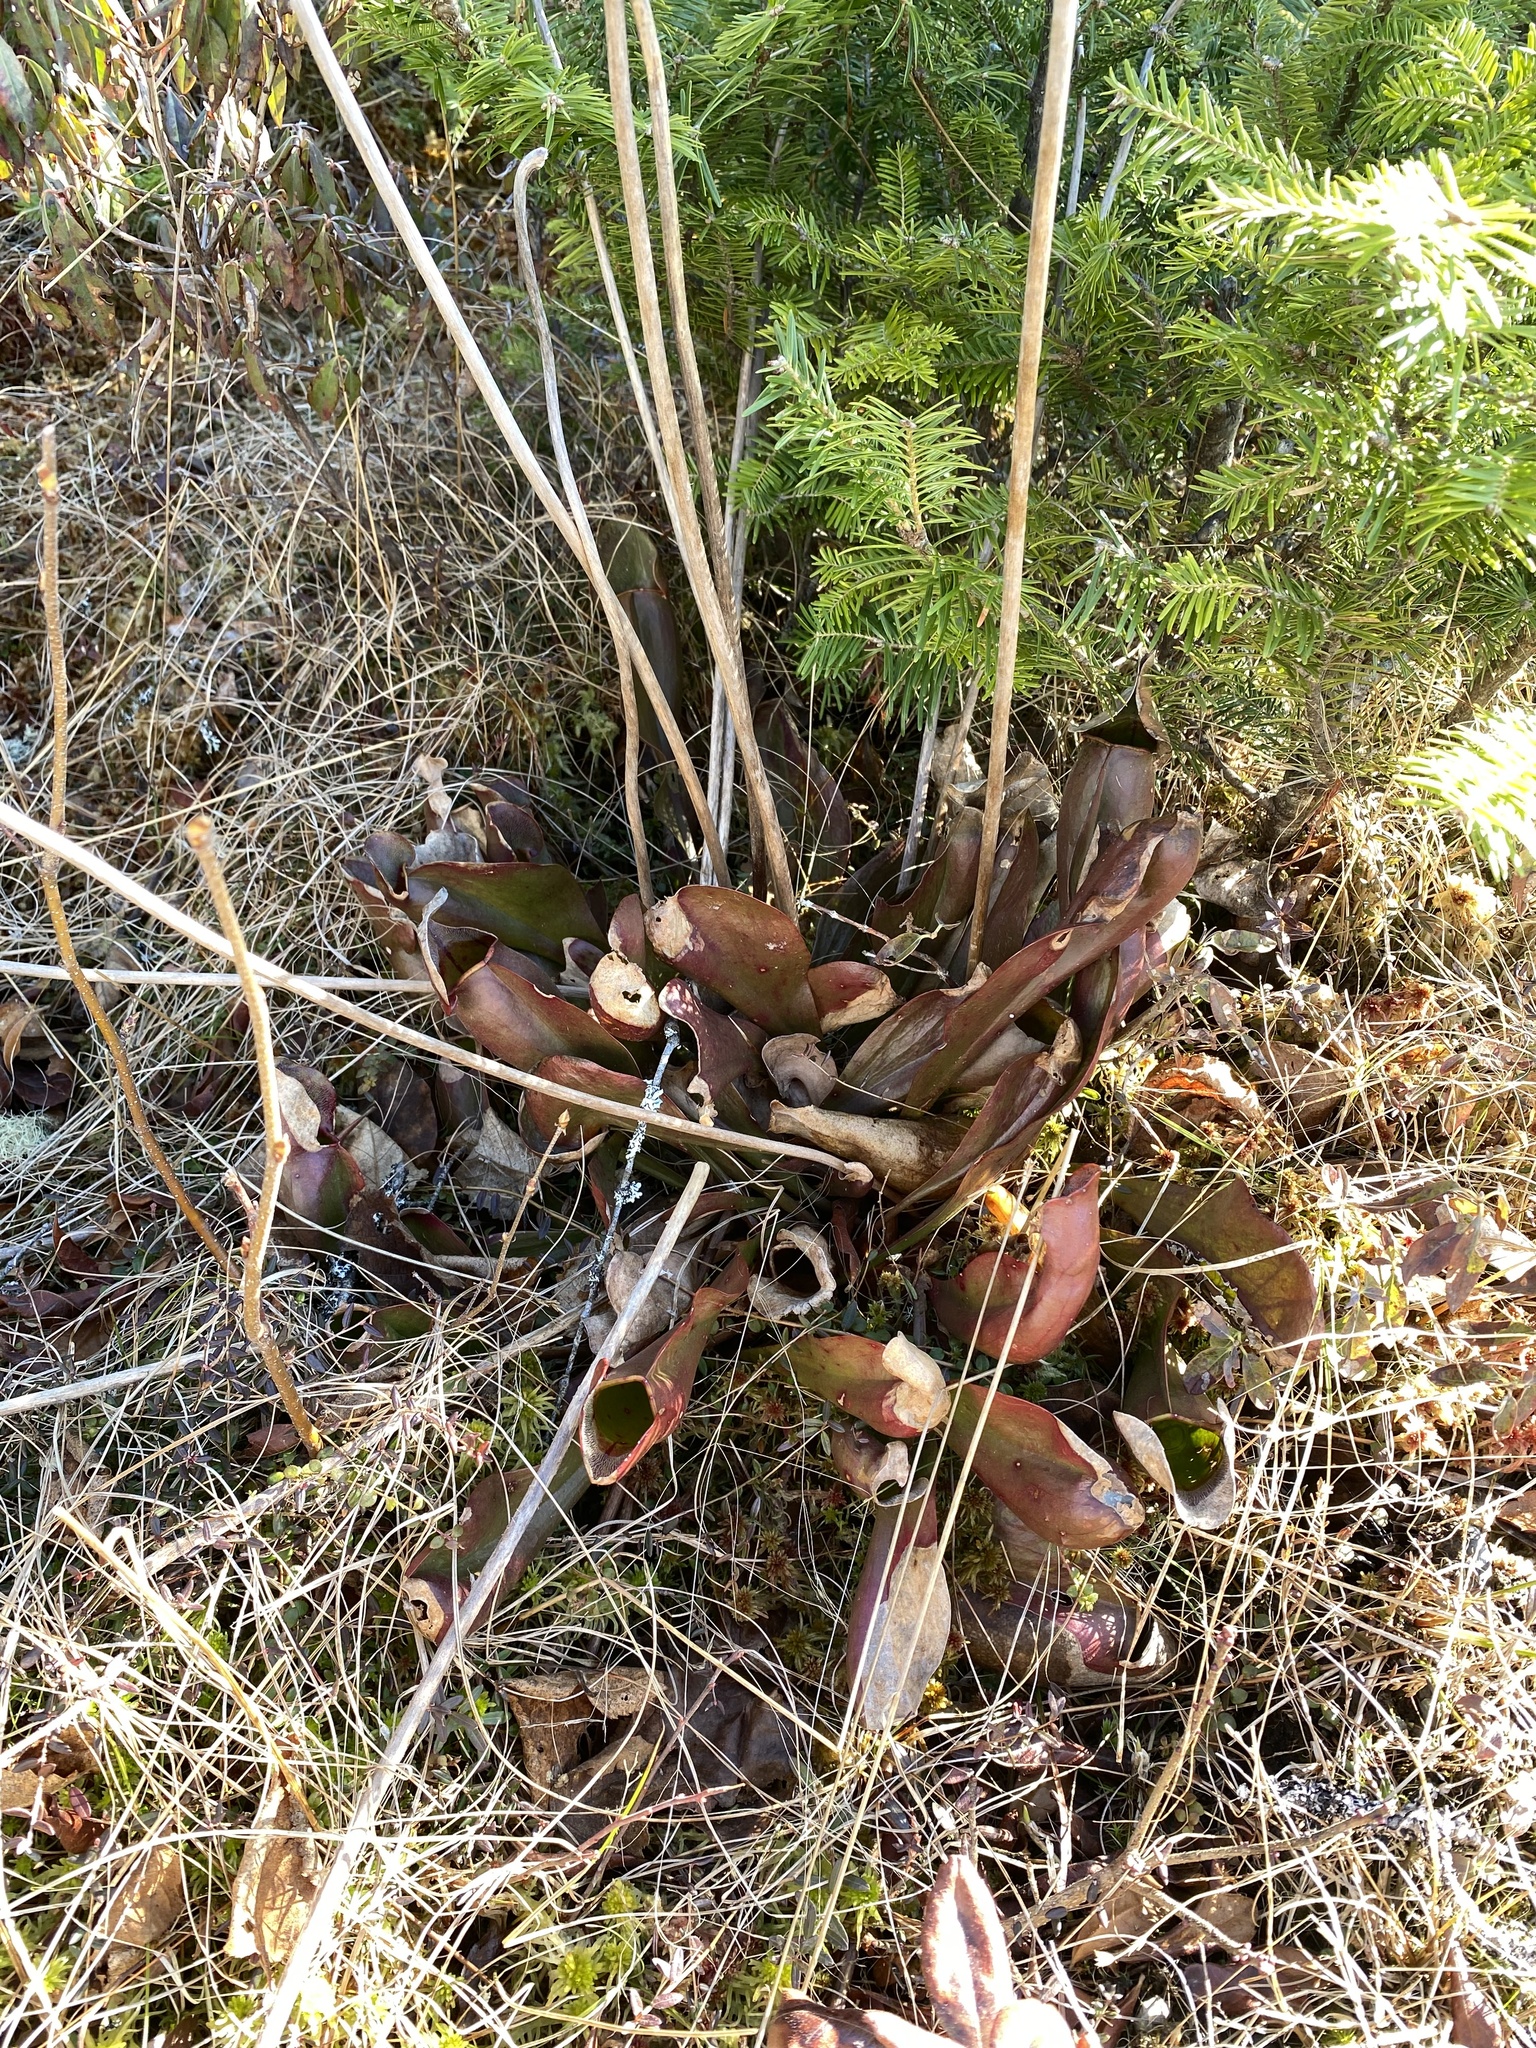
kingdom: Plantae
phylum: Tracheophyta
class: Magnoliopsida
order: Ericales
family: Sarraceniaceae
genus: Sarracenia
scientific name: Sarracenia purpurea
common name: Pitcherplant
